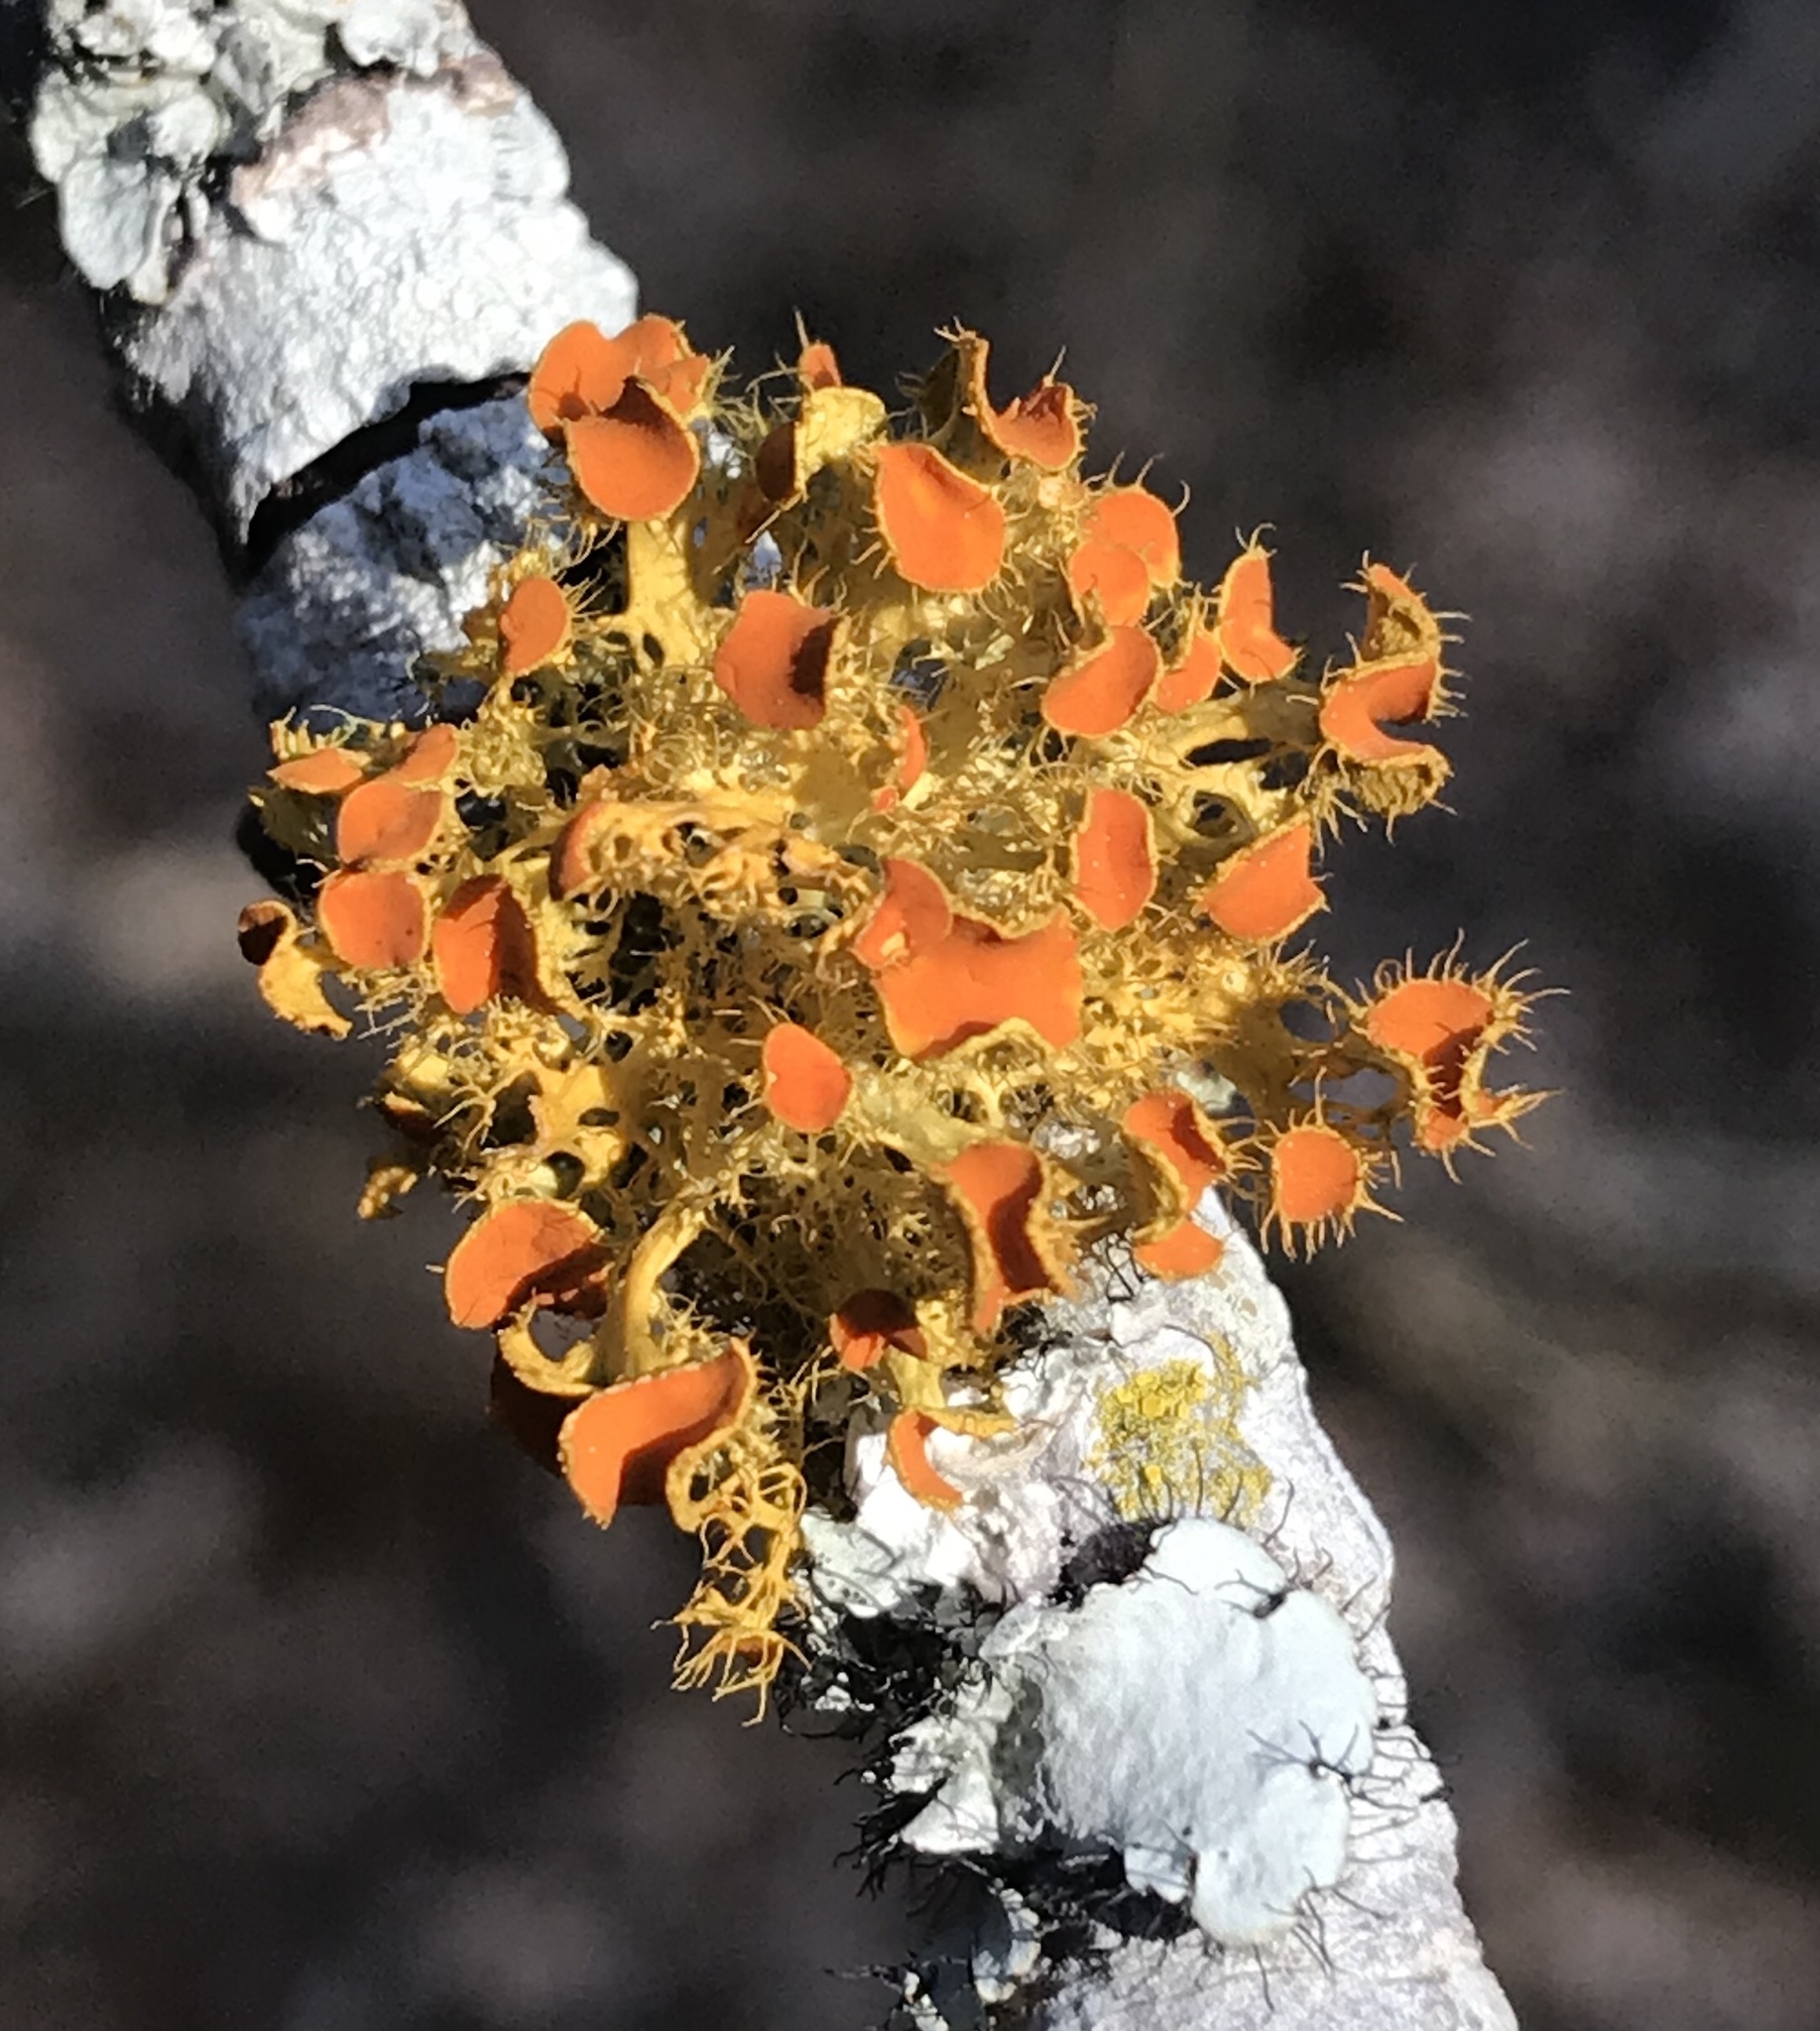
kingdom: Fungi
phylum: Ascomycota
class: Lecanoromycetes
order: Teloschistales
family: Teloschistaceae
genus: Niorma
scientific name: Niorma chrysophthalma
